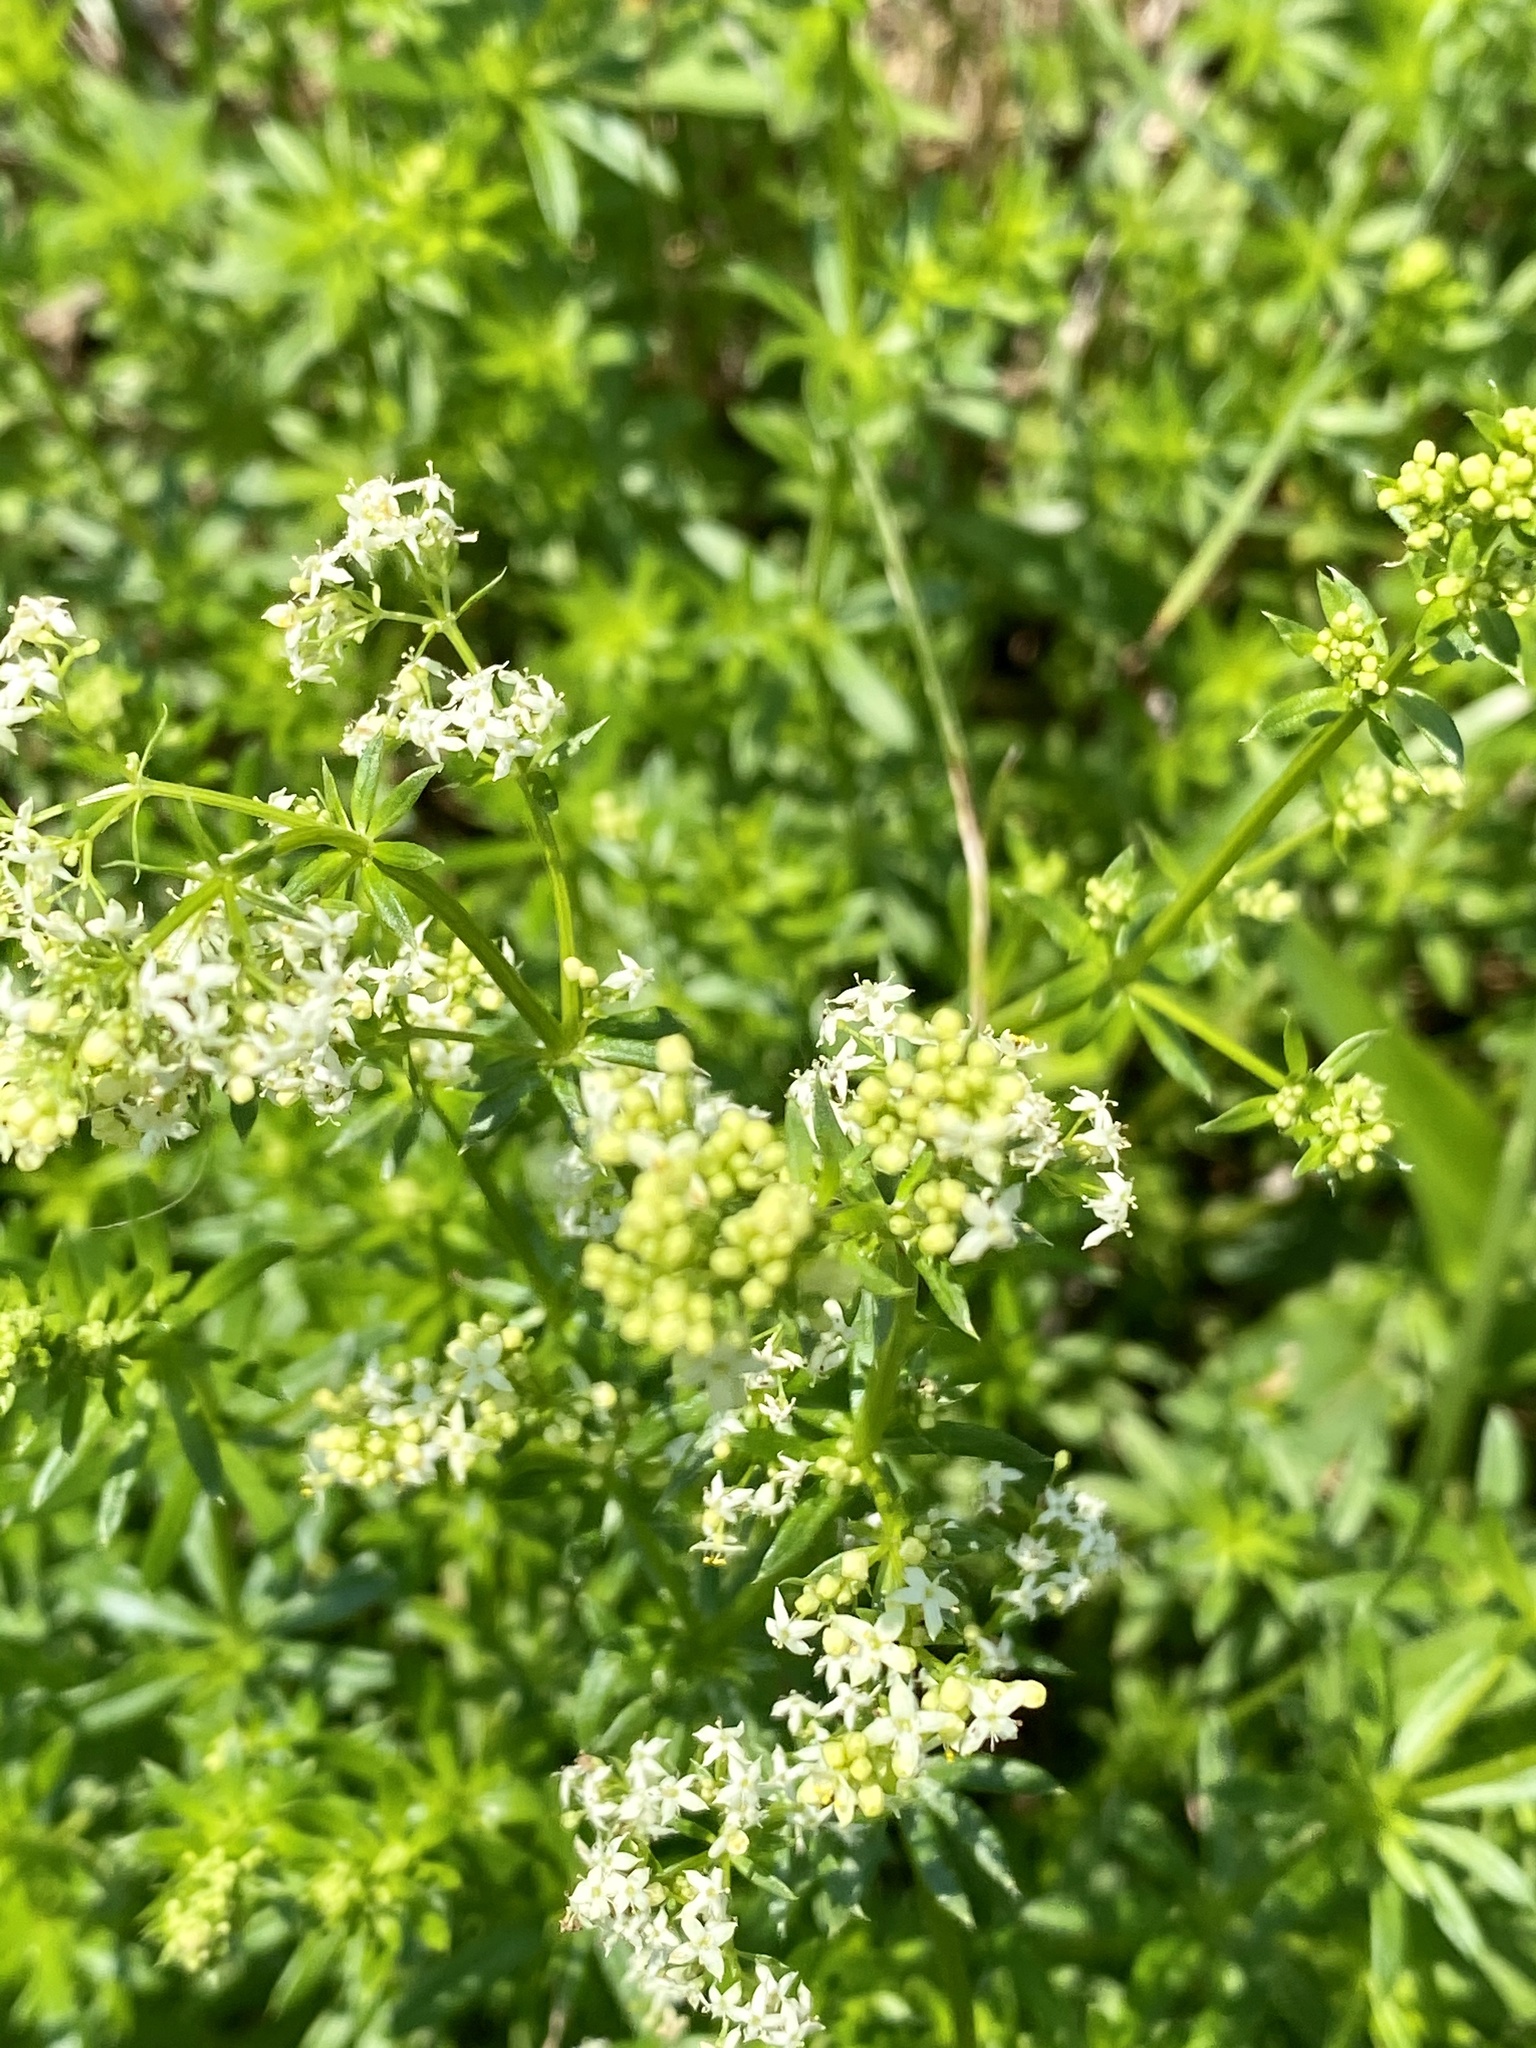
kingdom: Plantae
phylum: Tracheophyta
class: Magnoliopsida
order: Gentianales
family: Rubiaceae
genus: Galium
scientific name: Galium mollugo
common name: Hedge bedstraw
